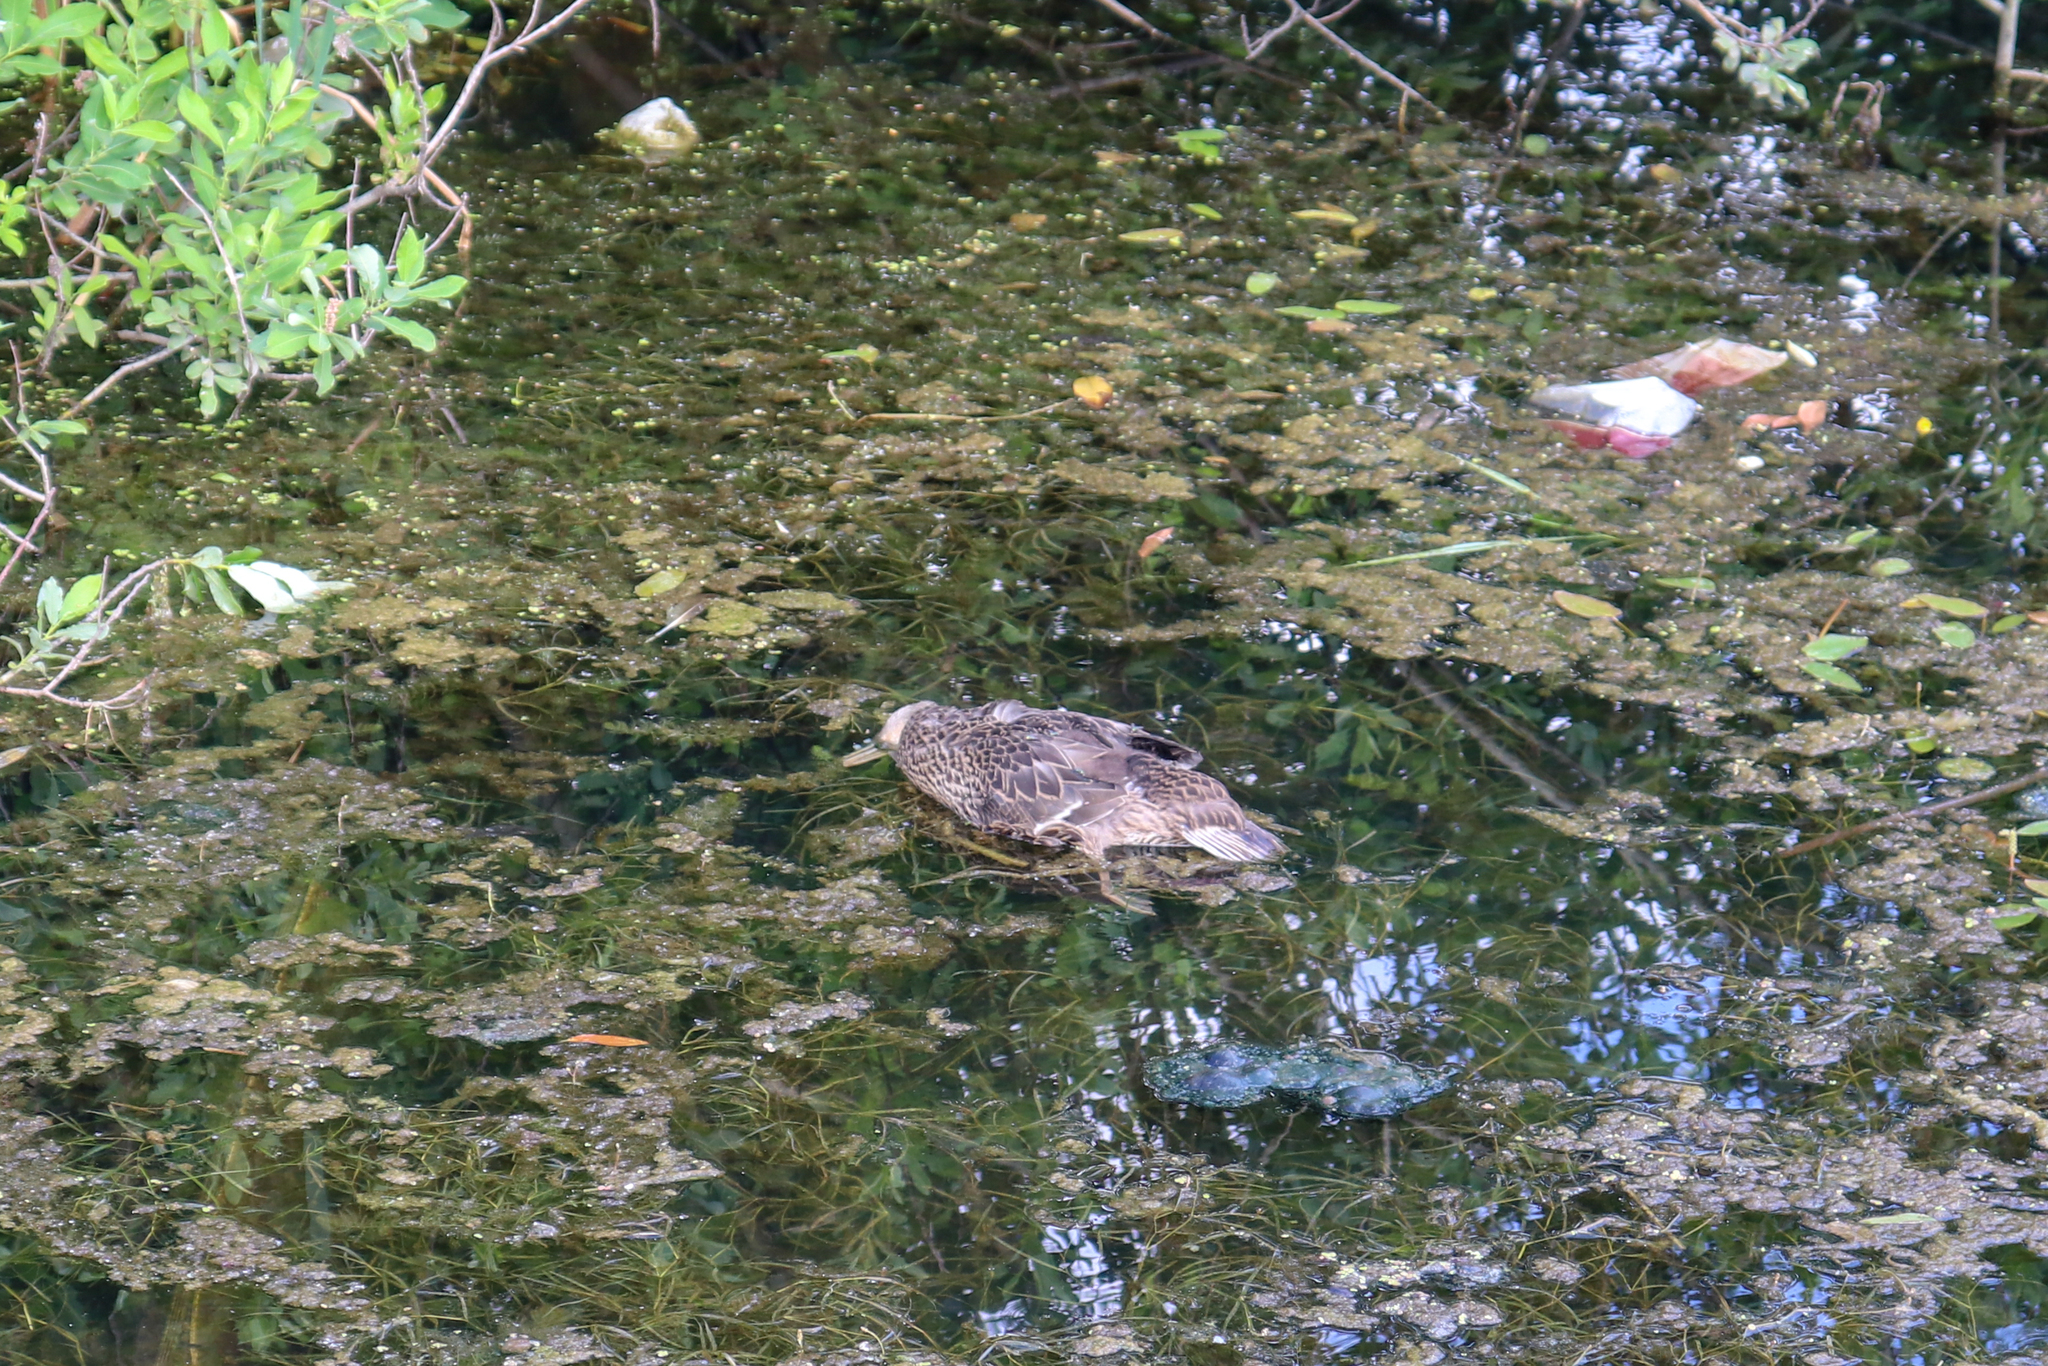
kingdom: Animalia
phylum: Chordata
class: Aves
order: Anseriformes
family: Anatidae
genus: Anas
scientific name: Anas platyrhynchos
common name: Mallard
